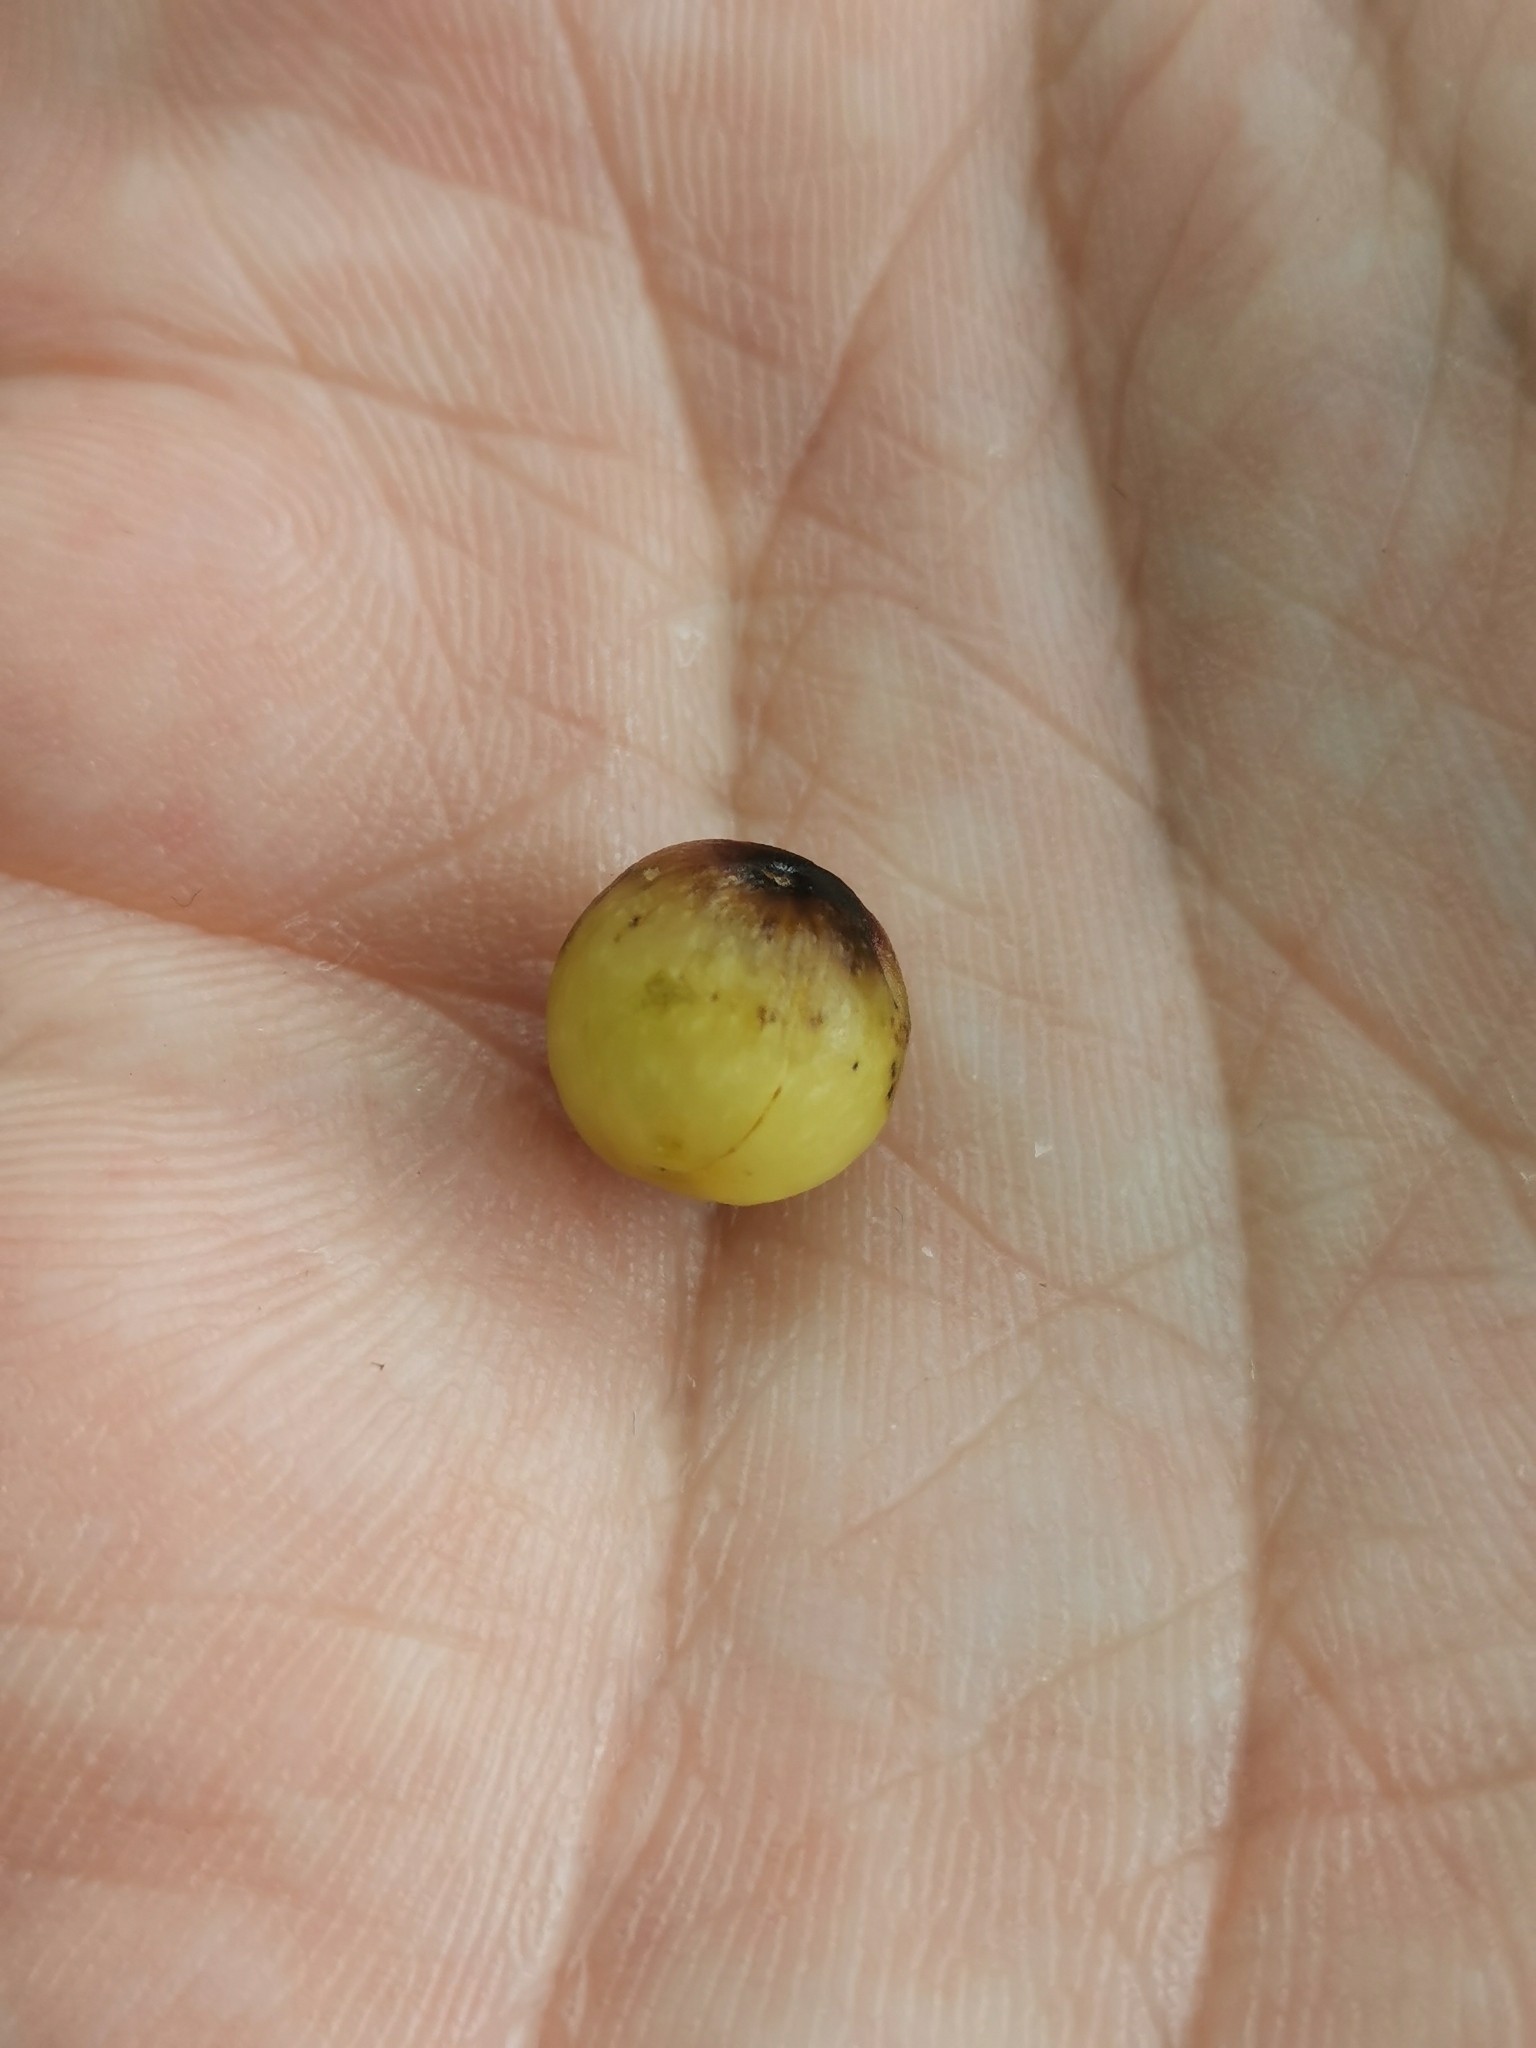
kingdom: Animalia
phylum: Arthropoda
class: Insecta
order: Hymenoptera
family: Cynipidae
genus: Callirhytis
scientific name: Callirhytis
